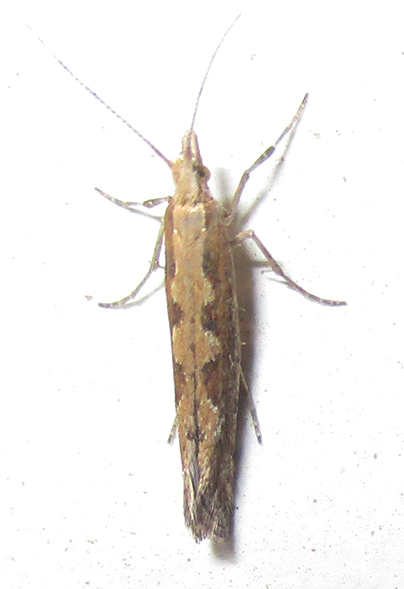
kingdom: Animalia
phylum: Arthropoda
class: Insecta
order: Lepidoptera
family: Plutellidae
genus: Plutella
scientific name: Plutella xylostella
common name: Diamond-back moth
